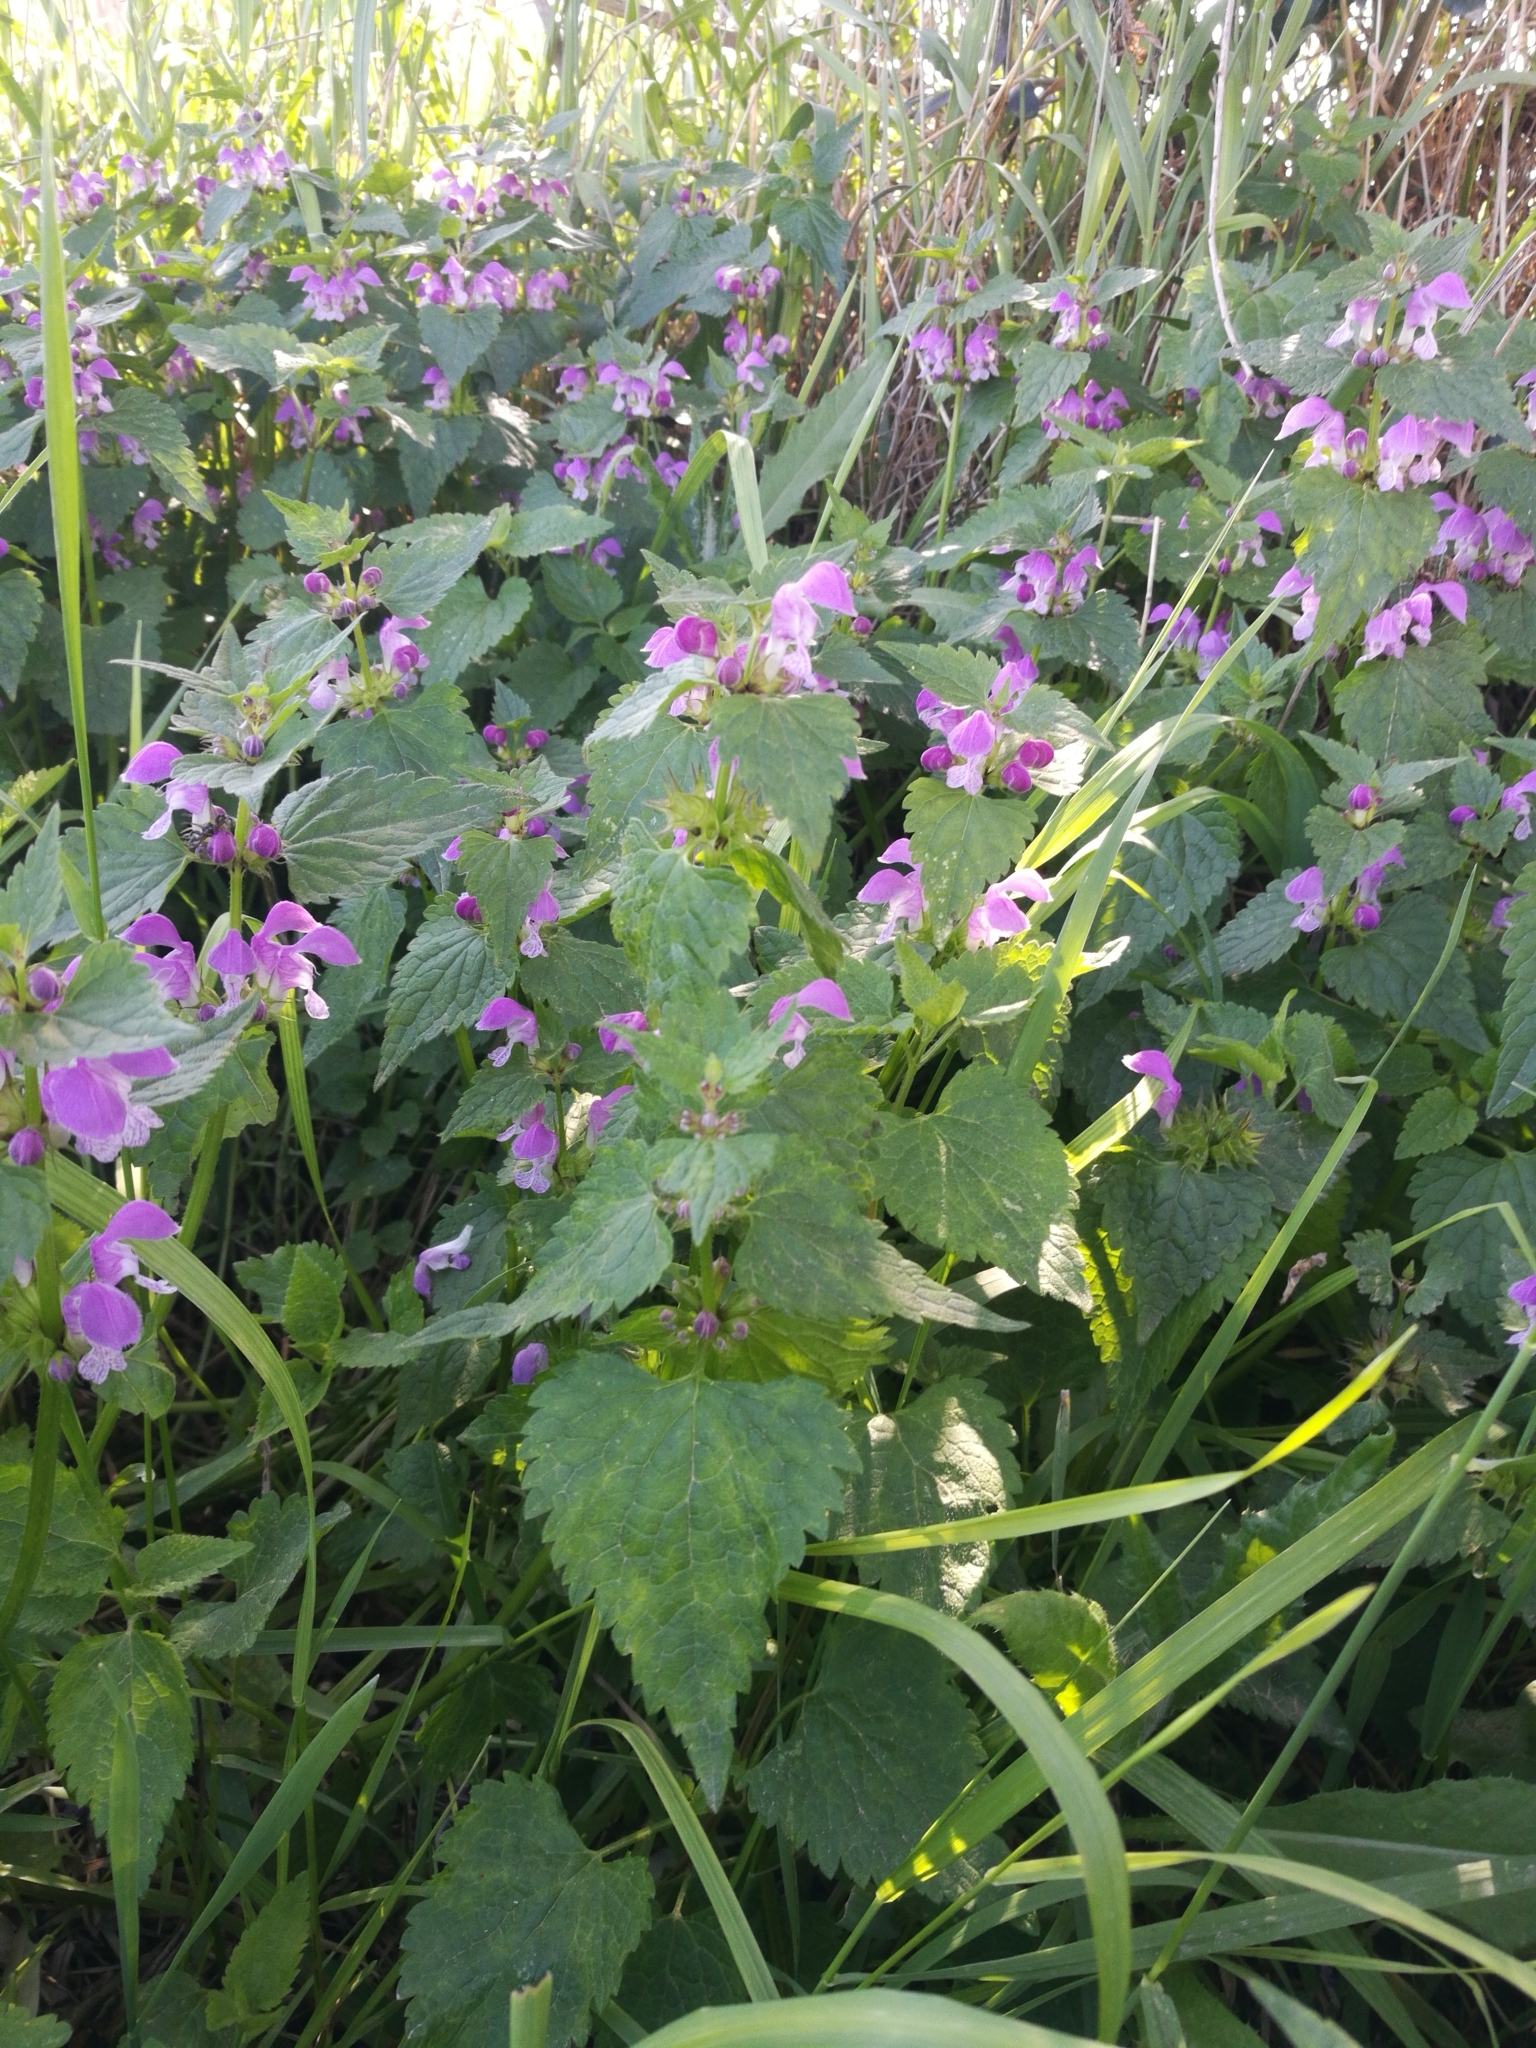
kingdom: Plantae
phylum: Tracheophyta
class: Magnoliopsida
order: Lamiales
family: Lamiaceae
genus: Lamium
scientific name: Lamium maculatum
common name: Spotted dead-nettle
